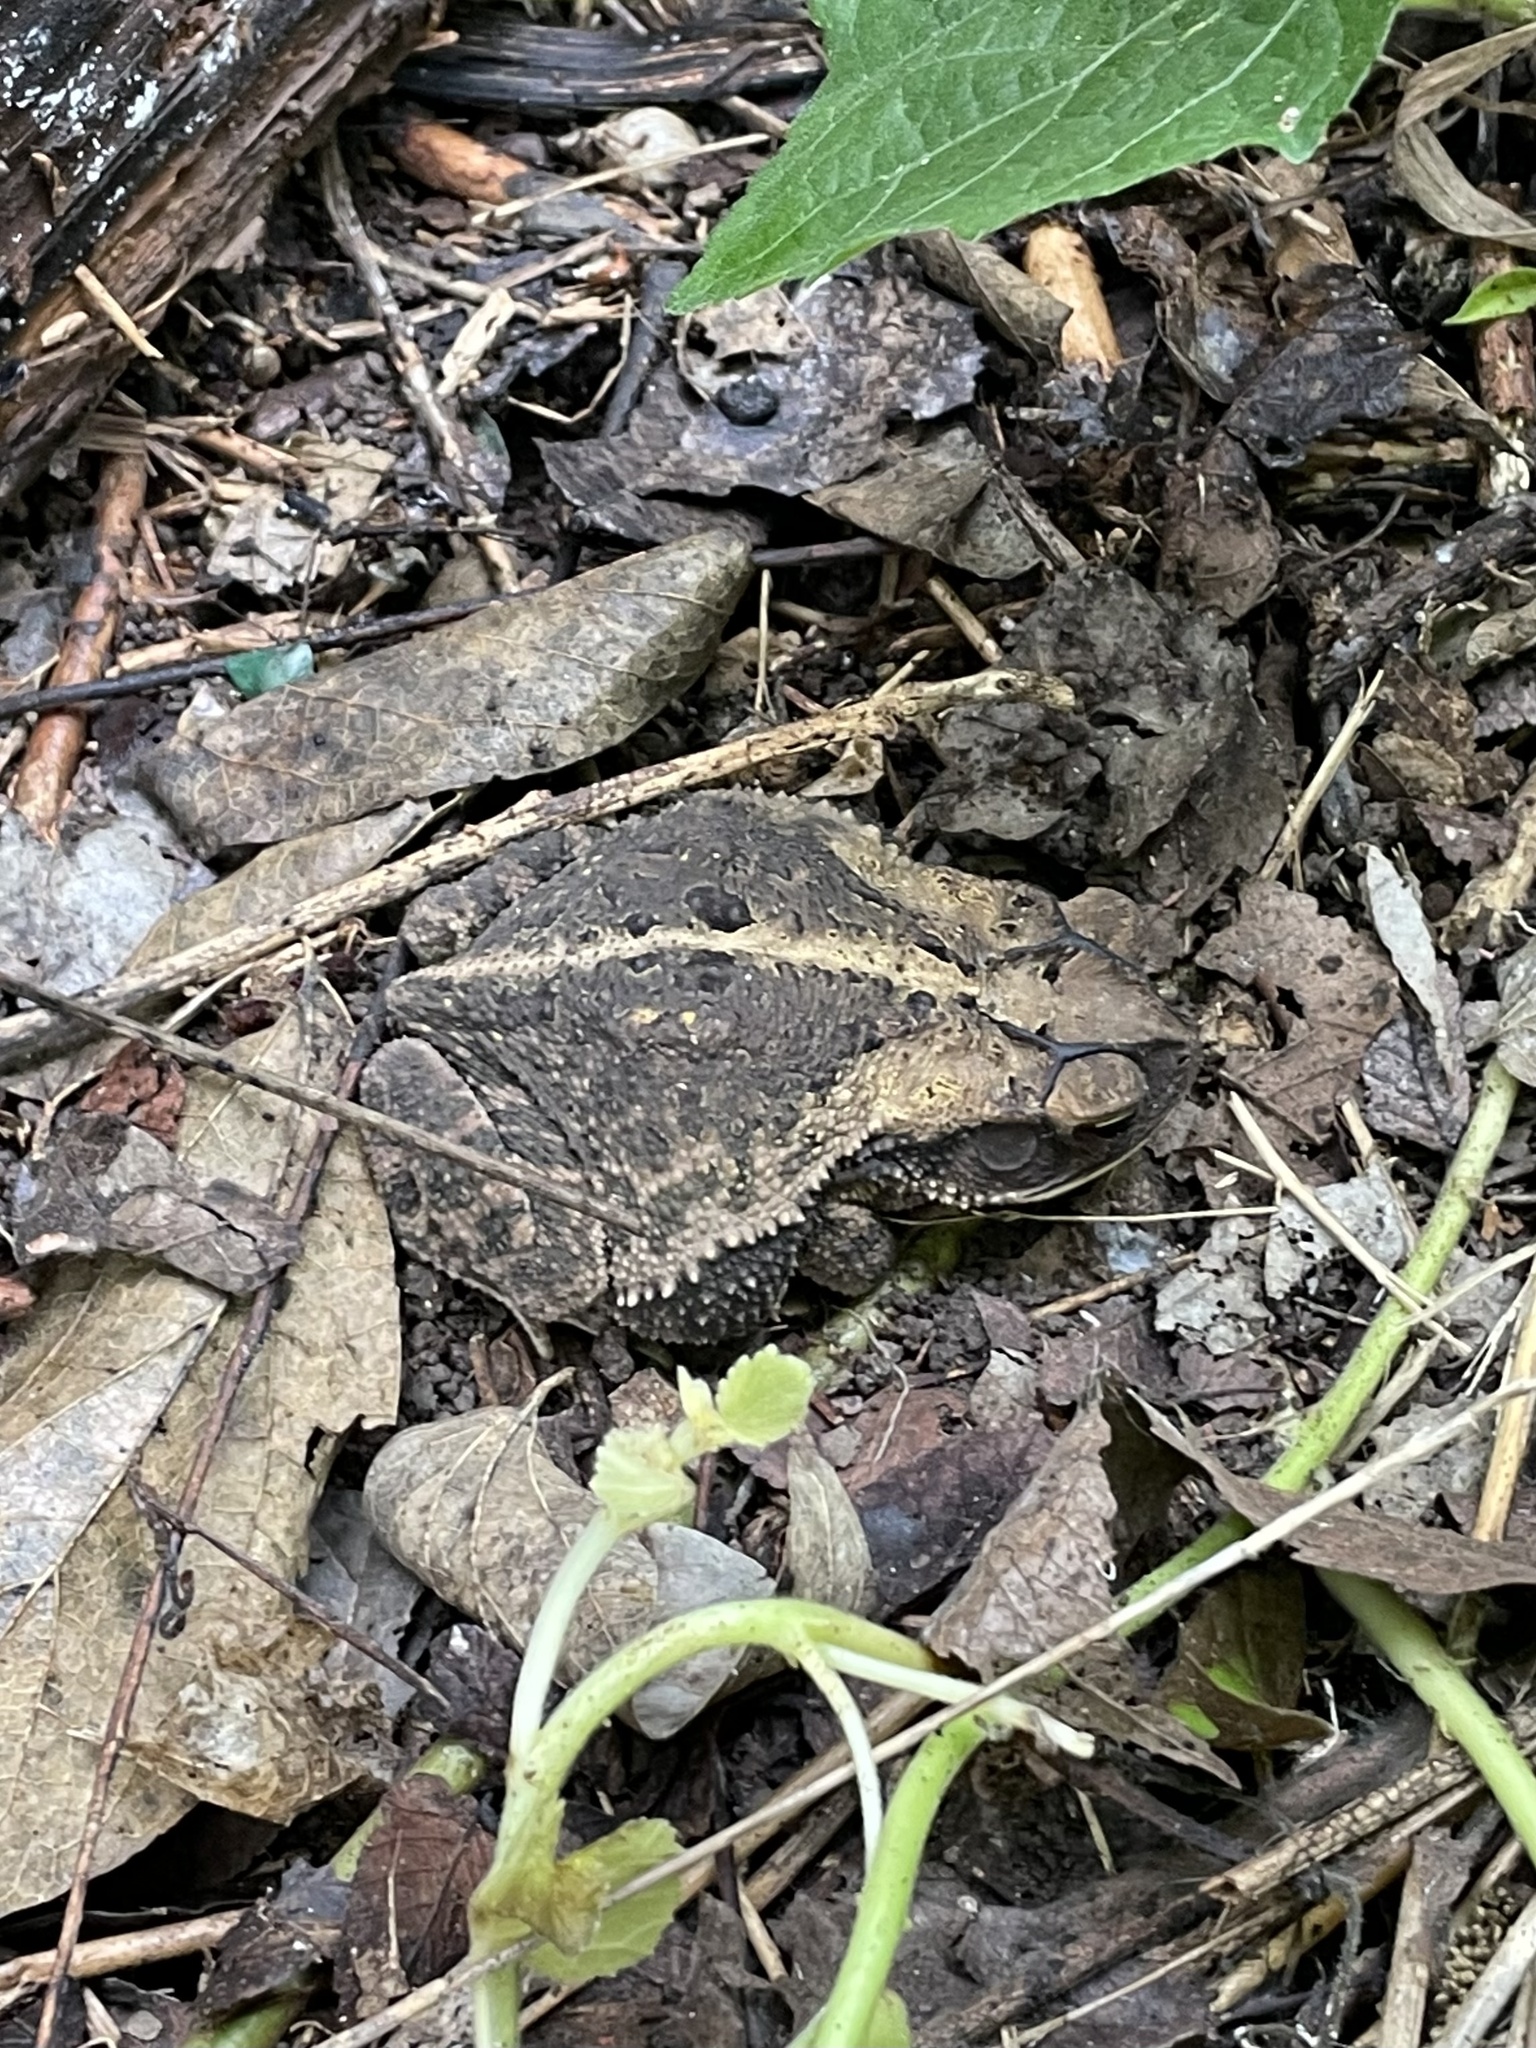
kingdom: Animalia
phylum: Chordata
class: Amphibia
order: Anura
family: Bufonidae
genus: Incilius
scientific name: Incilius nebulifer
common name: Gulf coast toad
